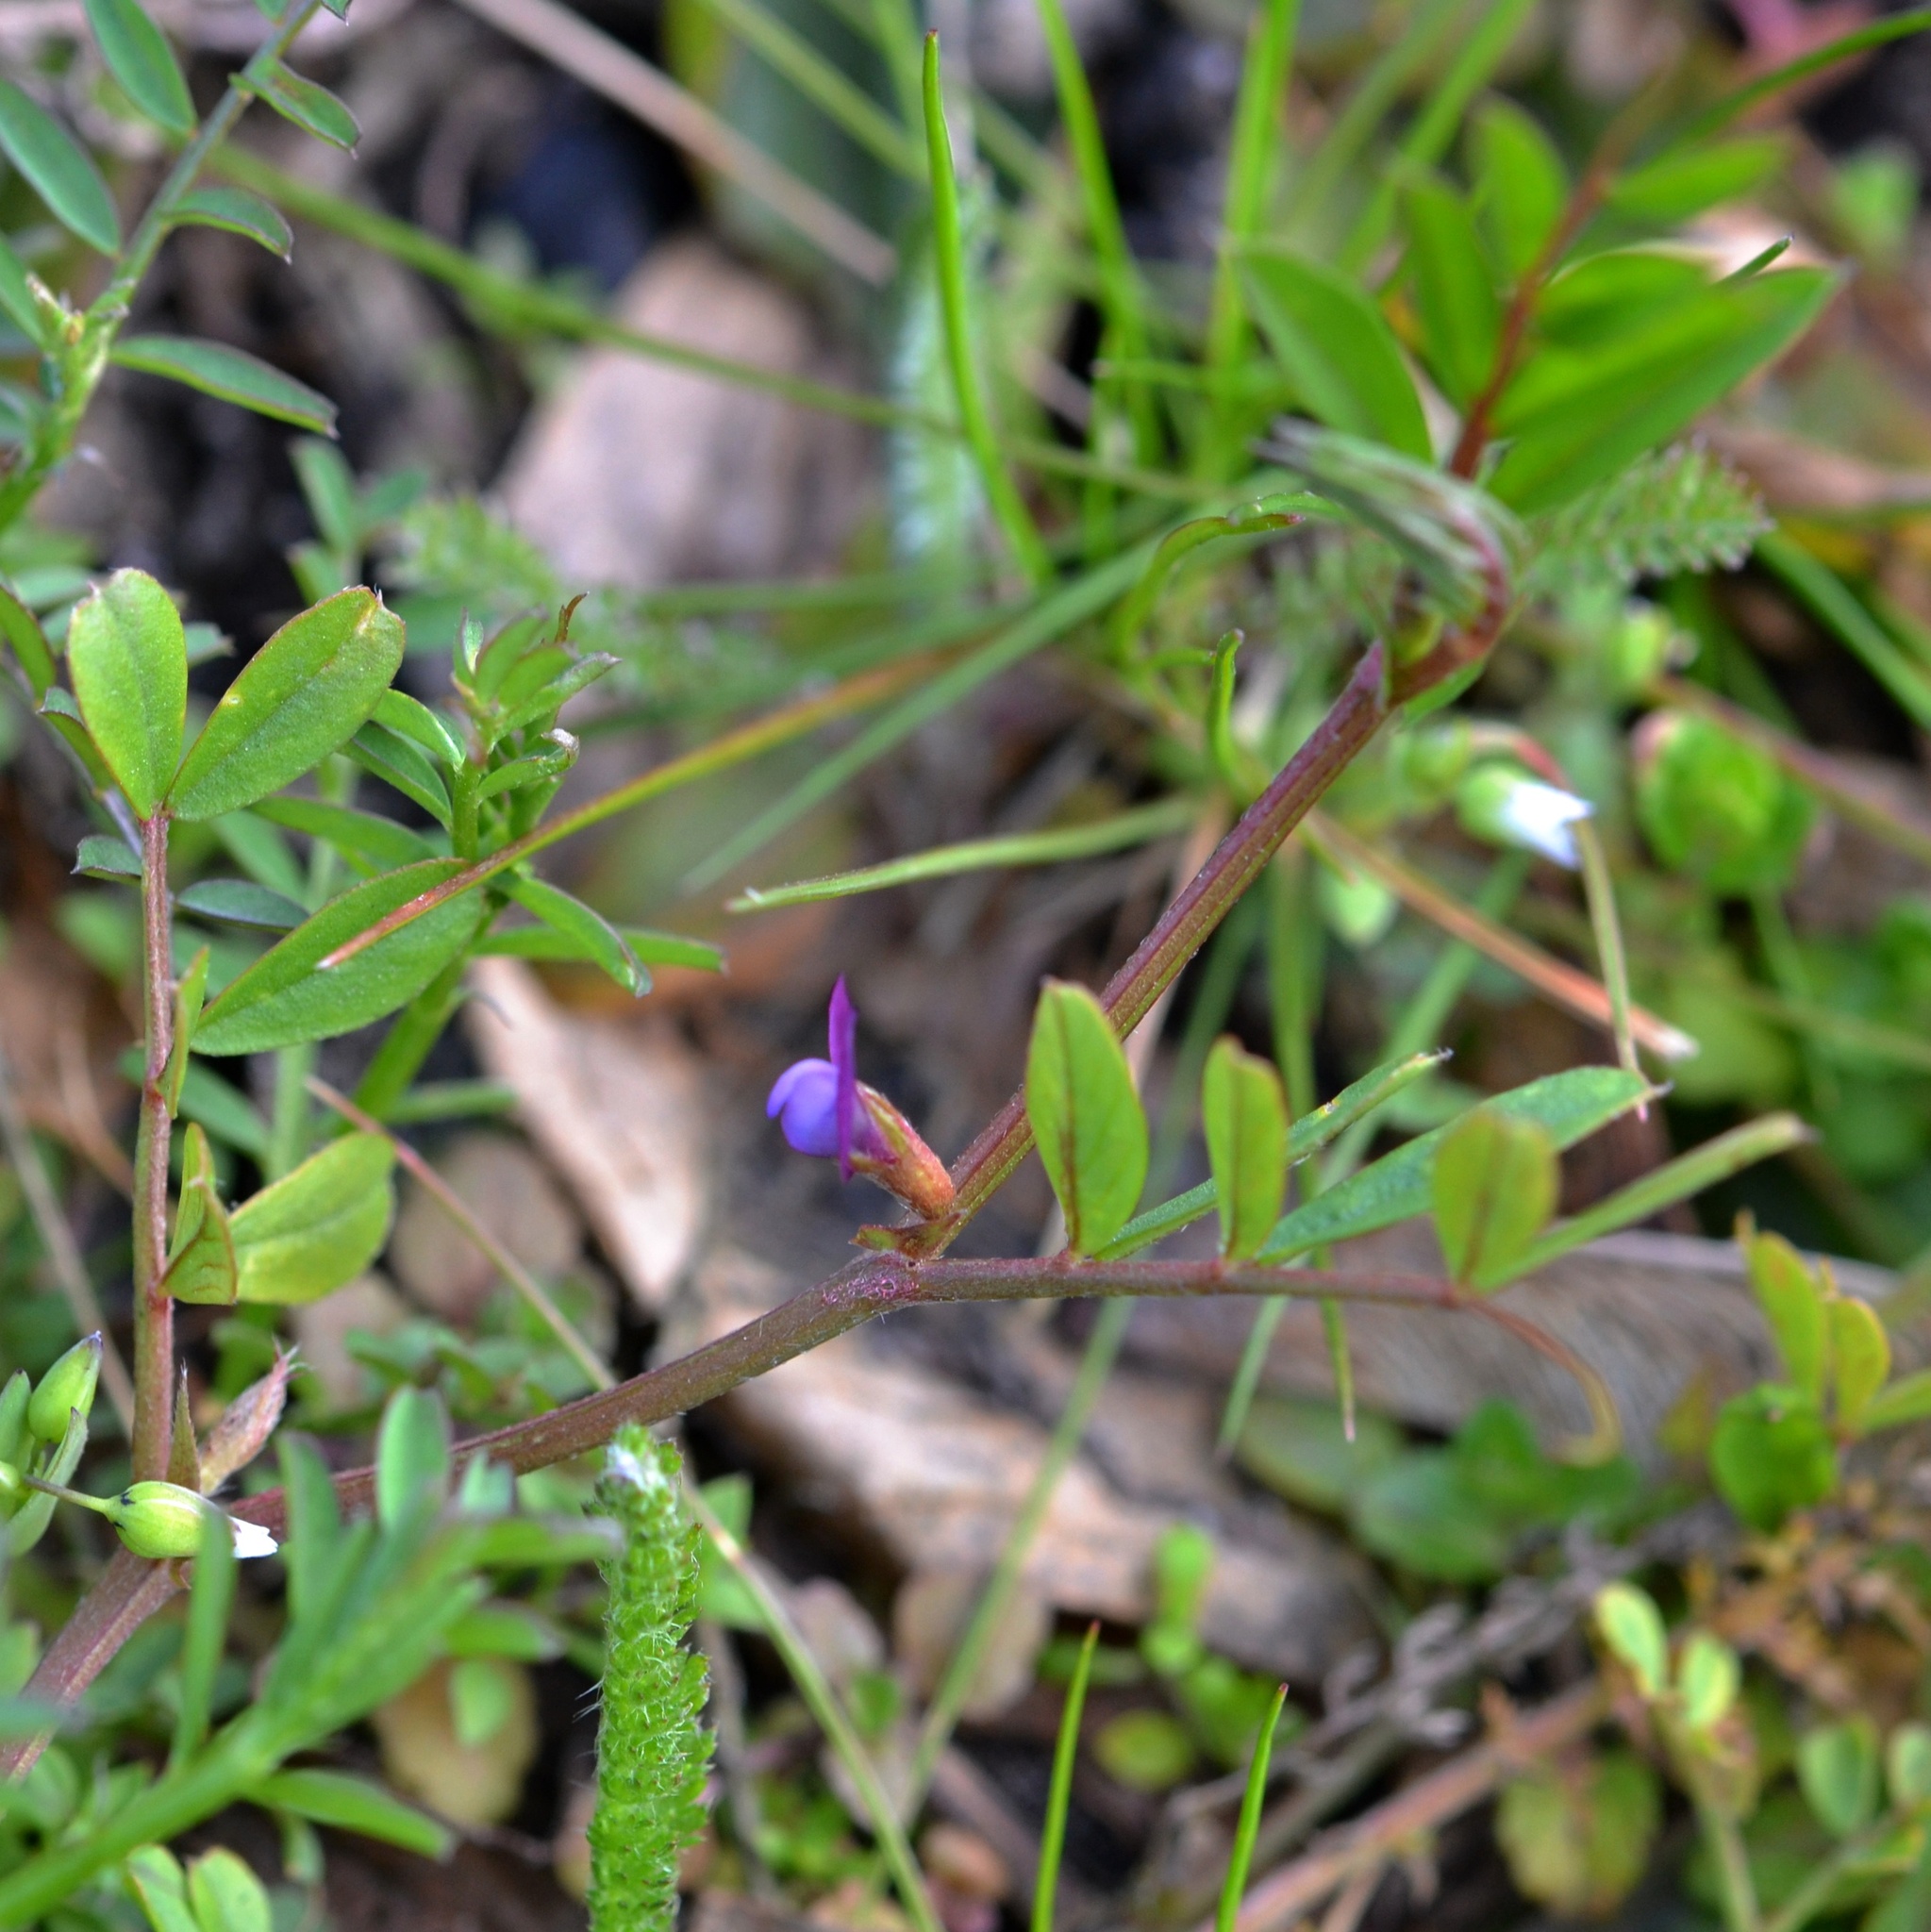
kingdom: Plantae
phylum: Tracheophyta
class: Magnoliopsida
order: Fabales
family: Fabaceae
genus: Vicia
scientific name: Vicia lathyroides
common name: Spring vetch
